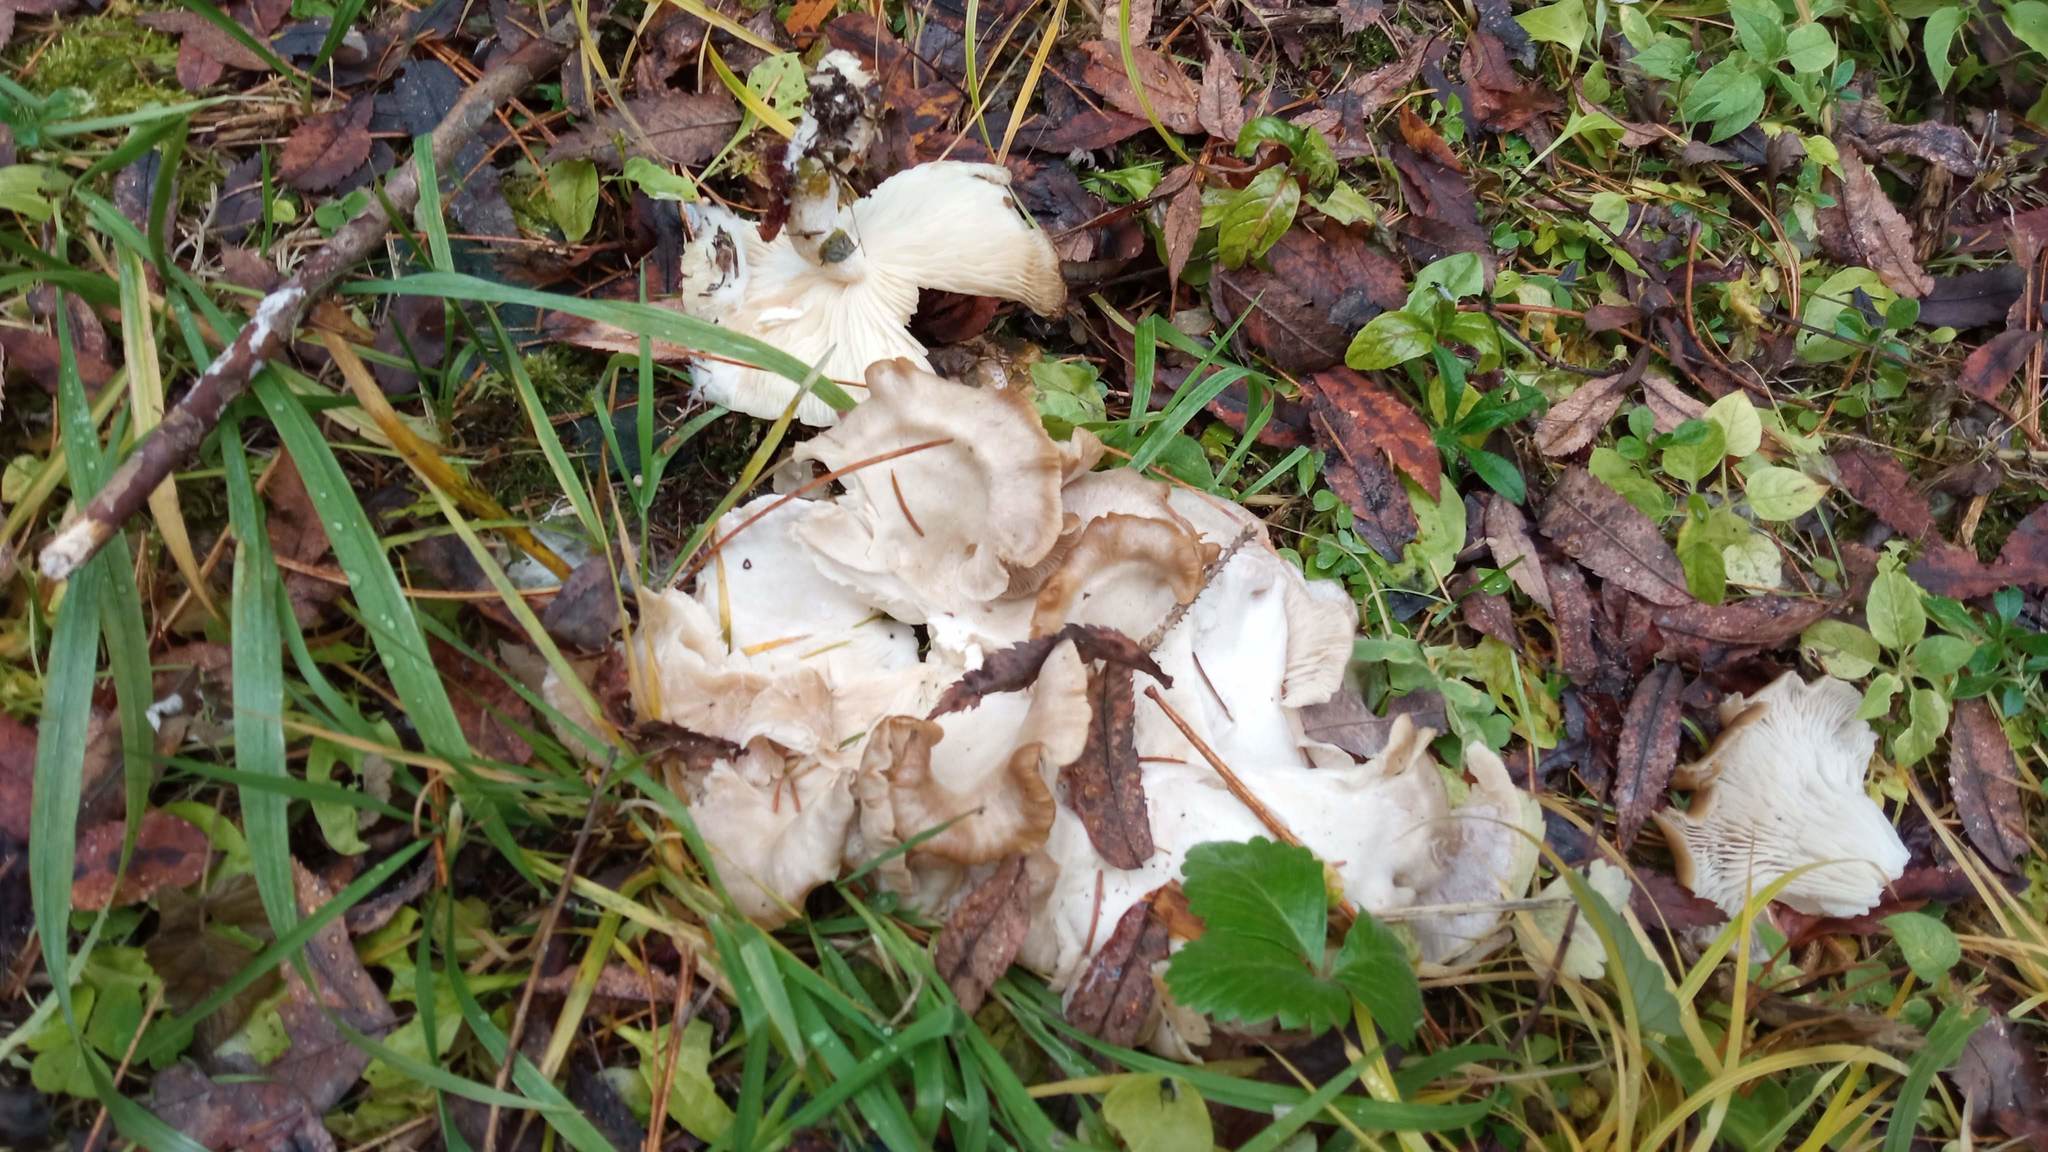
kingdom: Fungi
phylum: Basidiomycota
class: Agaricomycetes
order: Agaricales
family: Tricholomataceae
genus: Leucocybe
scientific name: Leucocybe connata
